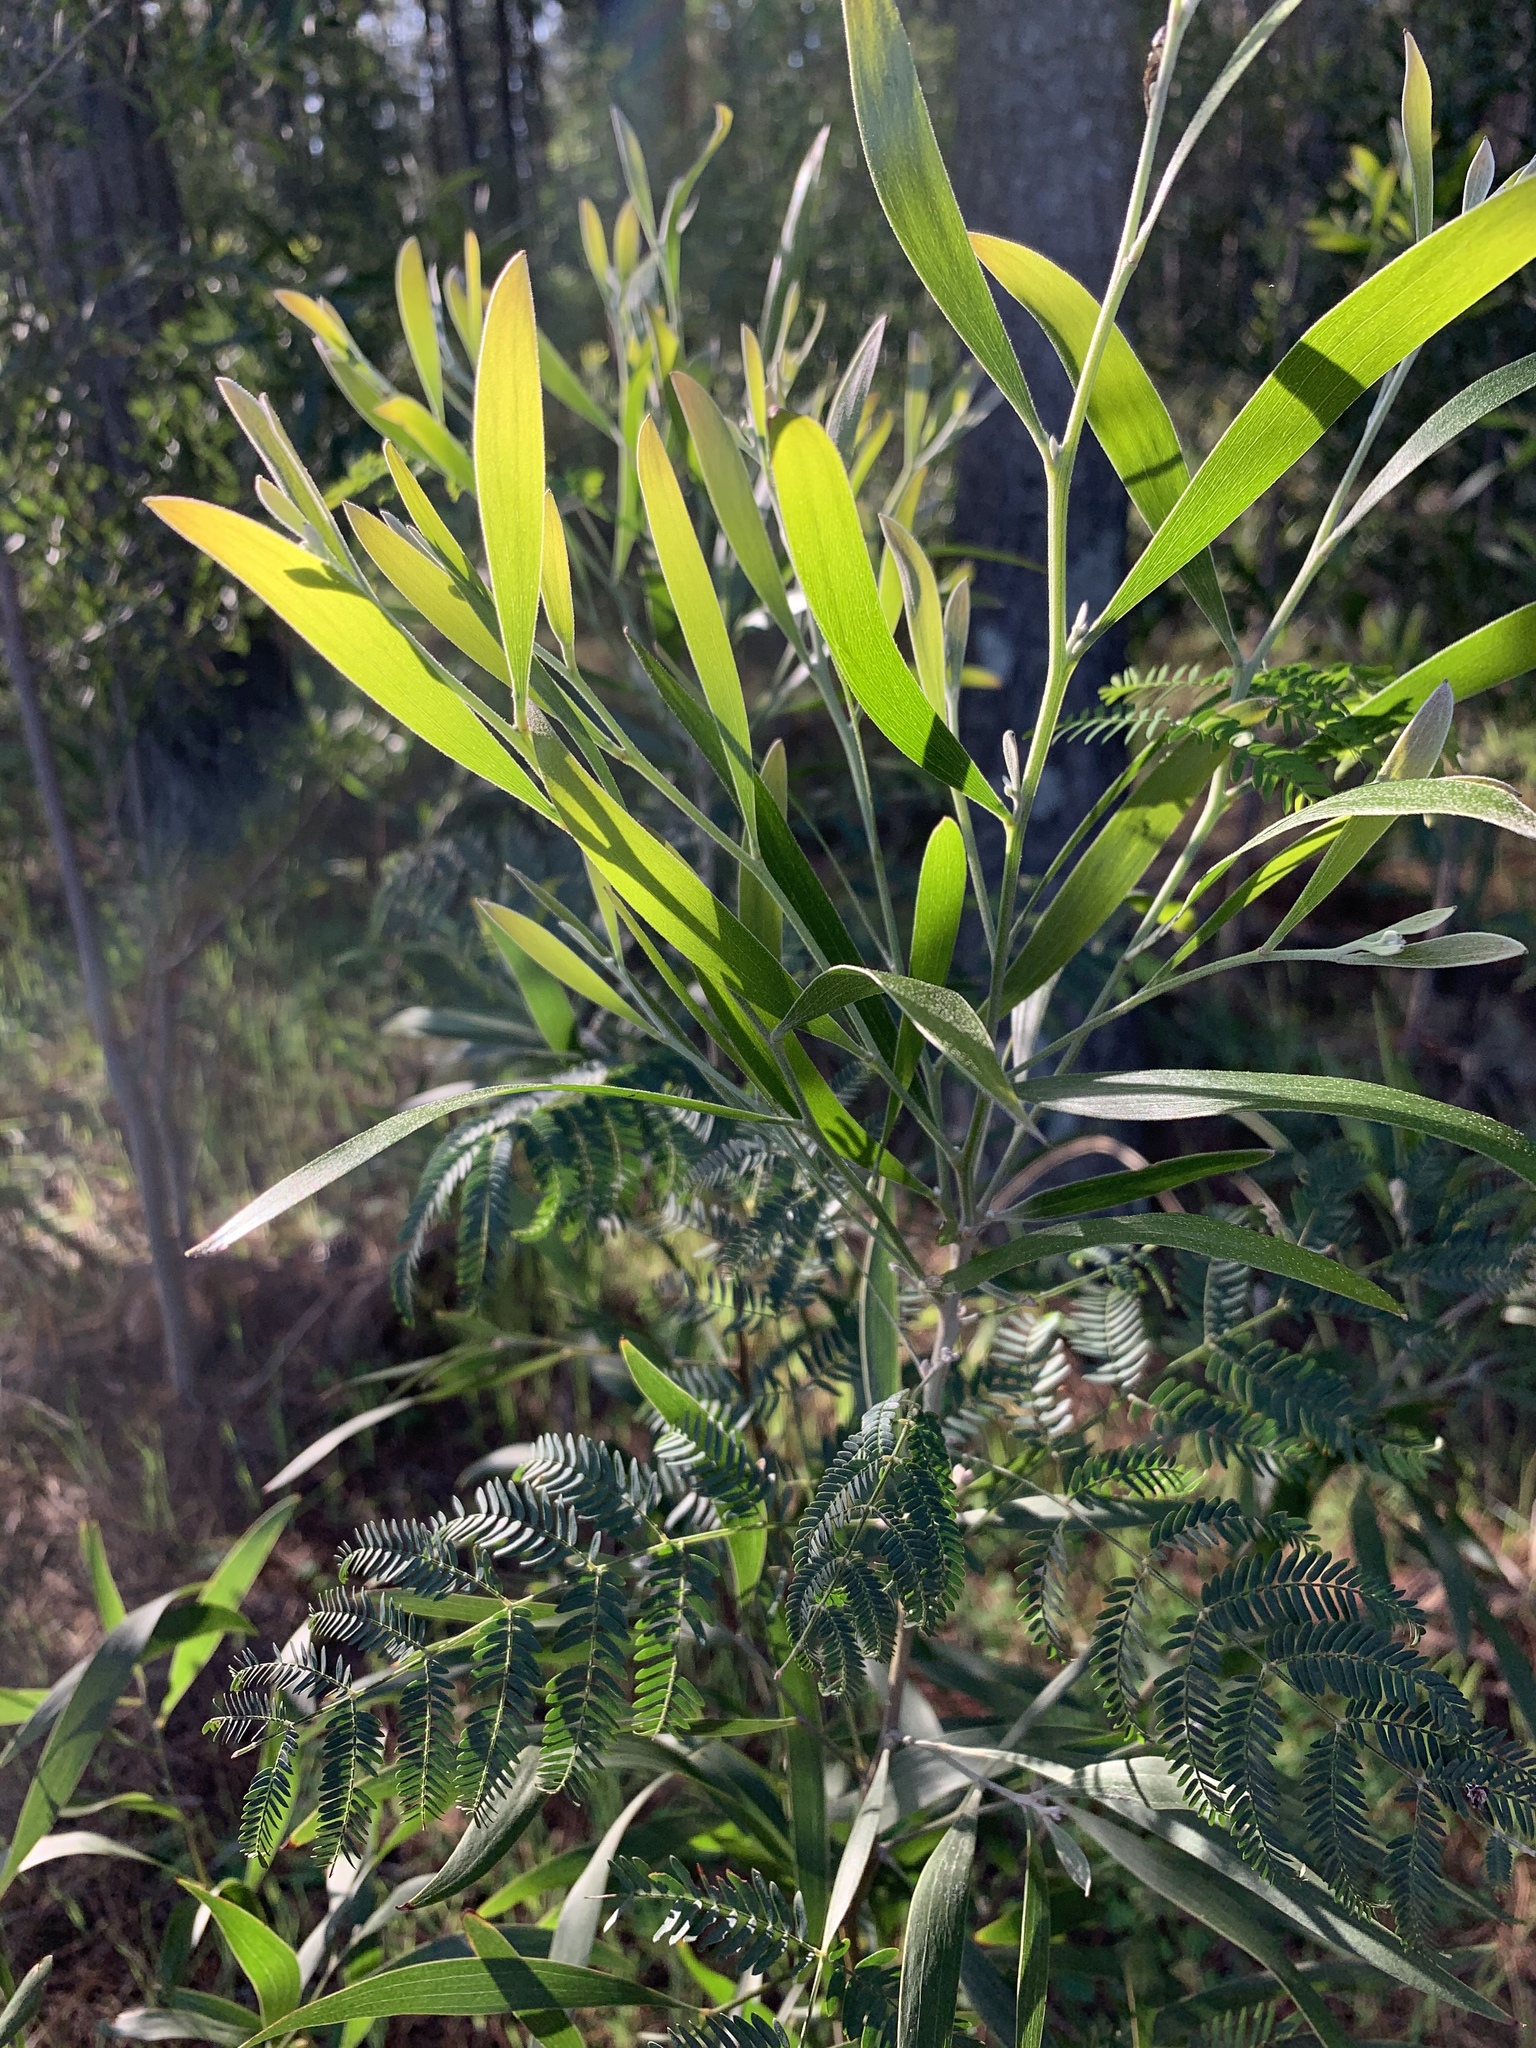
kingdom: Plantae
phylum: Tracheophyta
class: Magnoliopsida
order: Fabales
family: Fabaceae
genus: Acacia
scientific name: Acacia melanoxylon
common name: Blackwood
